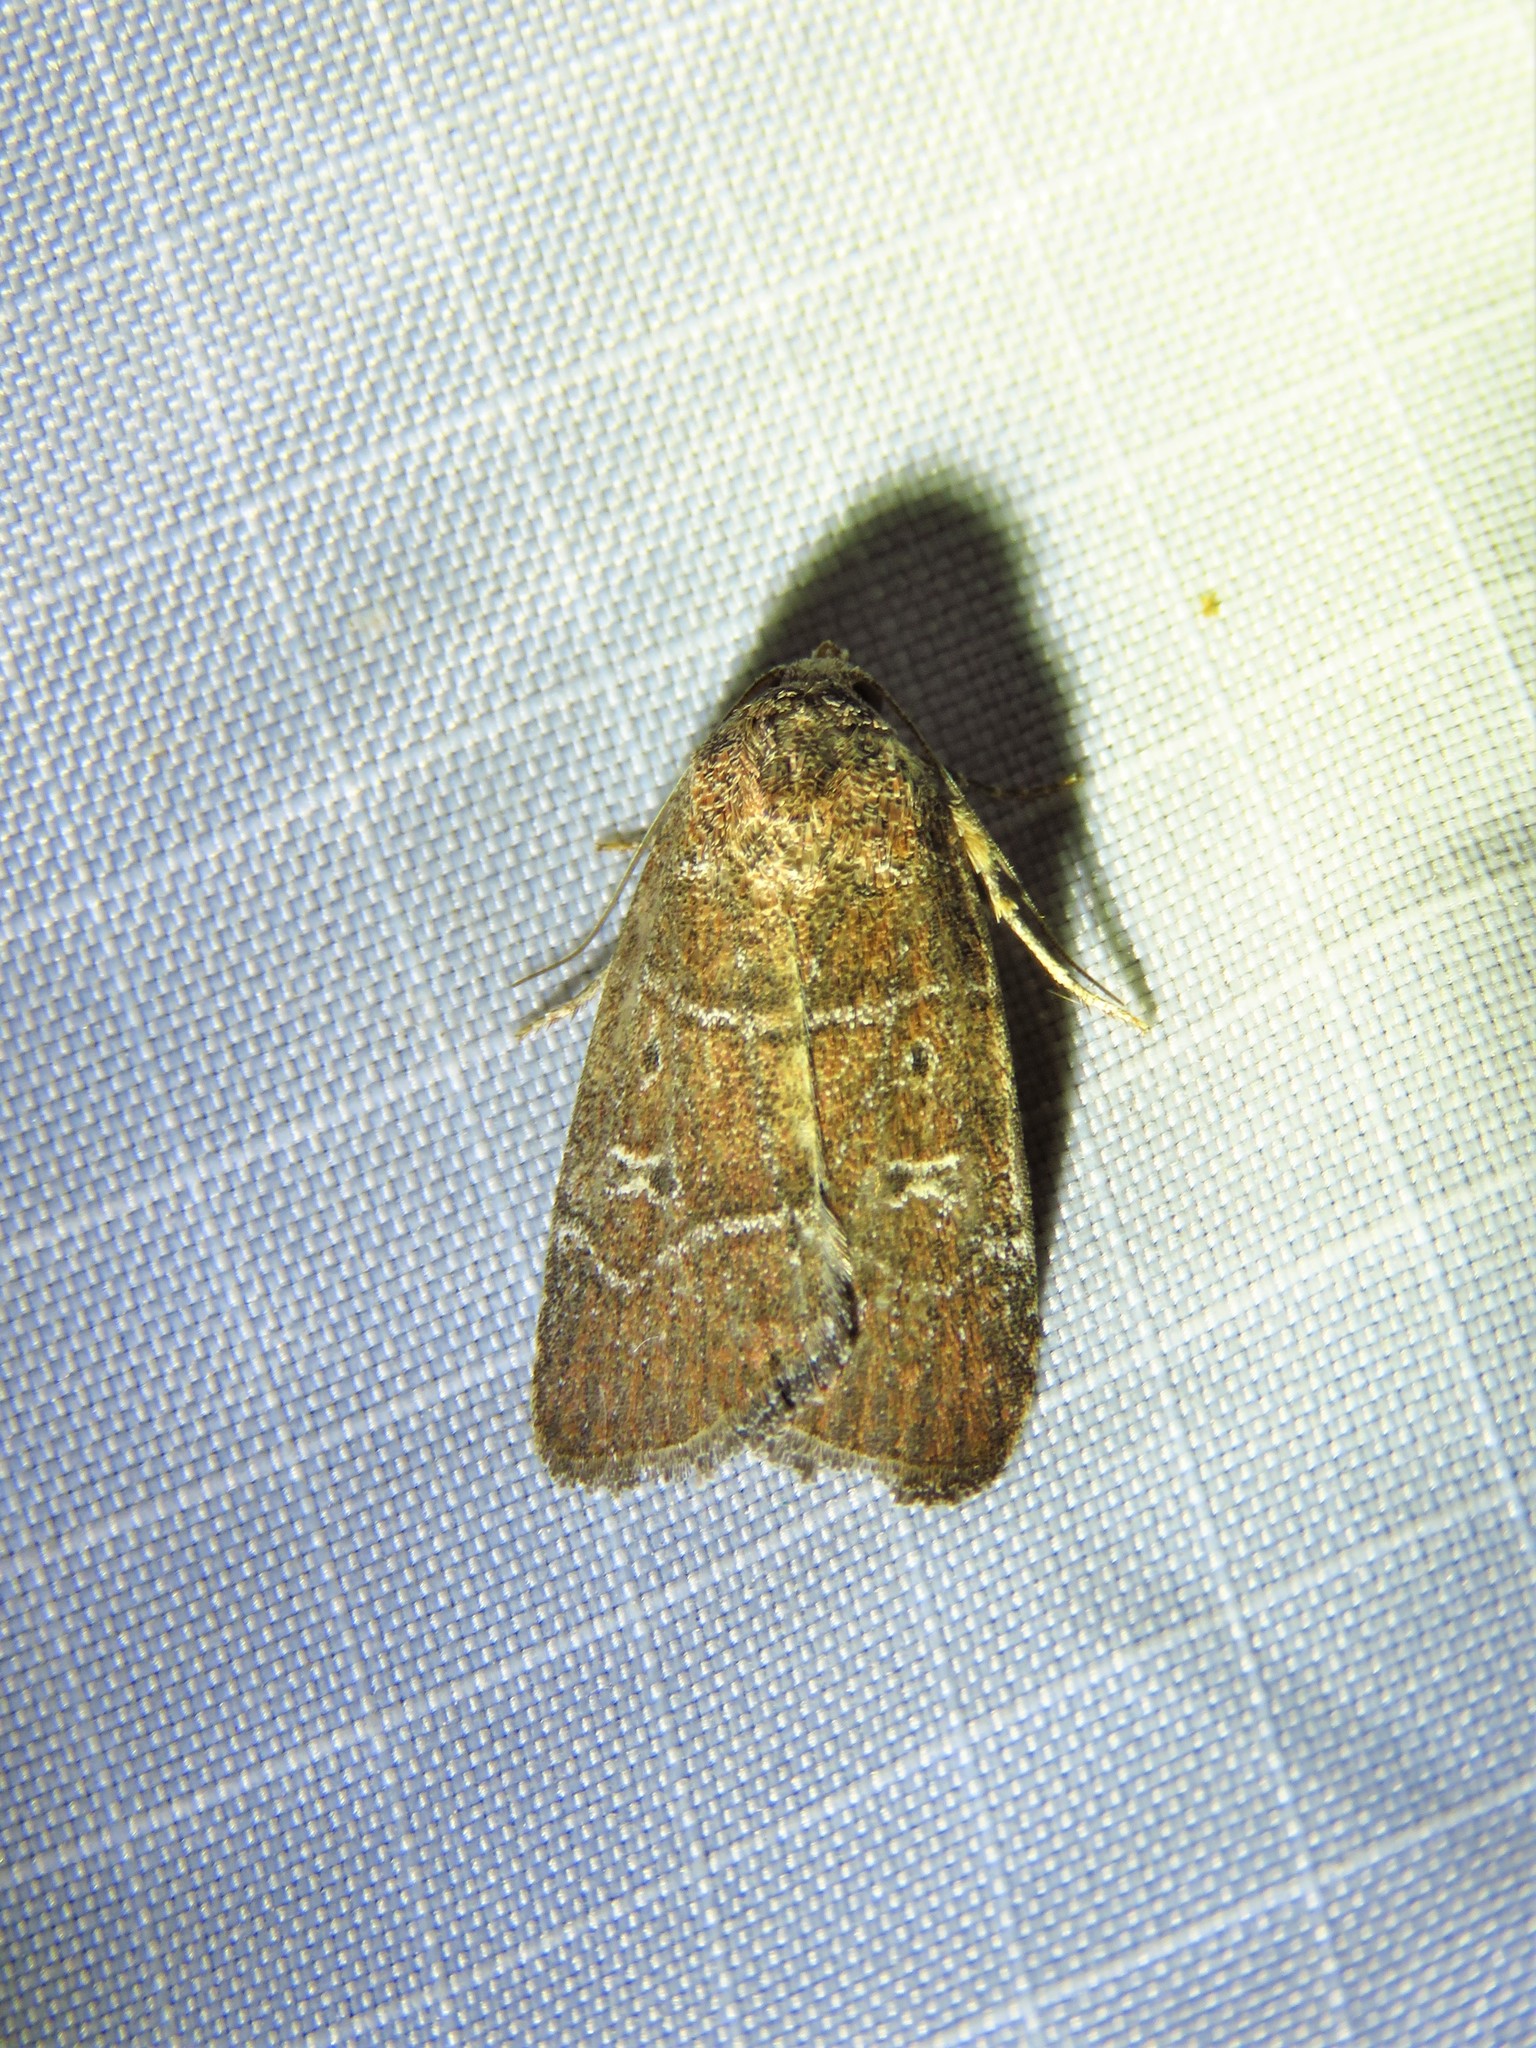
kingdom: Animalia
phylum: Arthropoda
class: Insecta
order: Lepidoptera
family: Noctuidae
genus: Elaphria
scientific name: Elaphria grata
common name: Grateful midget moth
